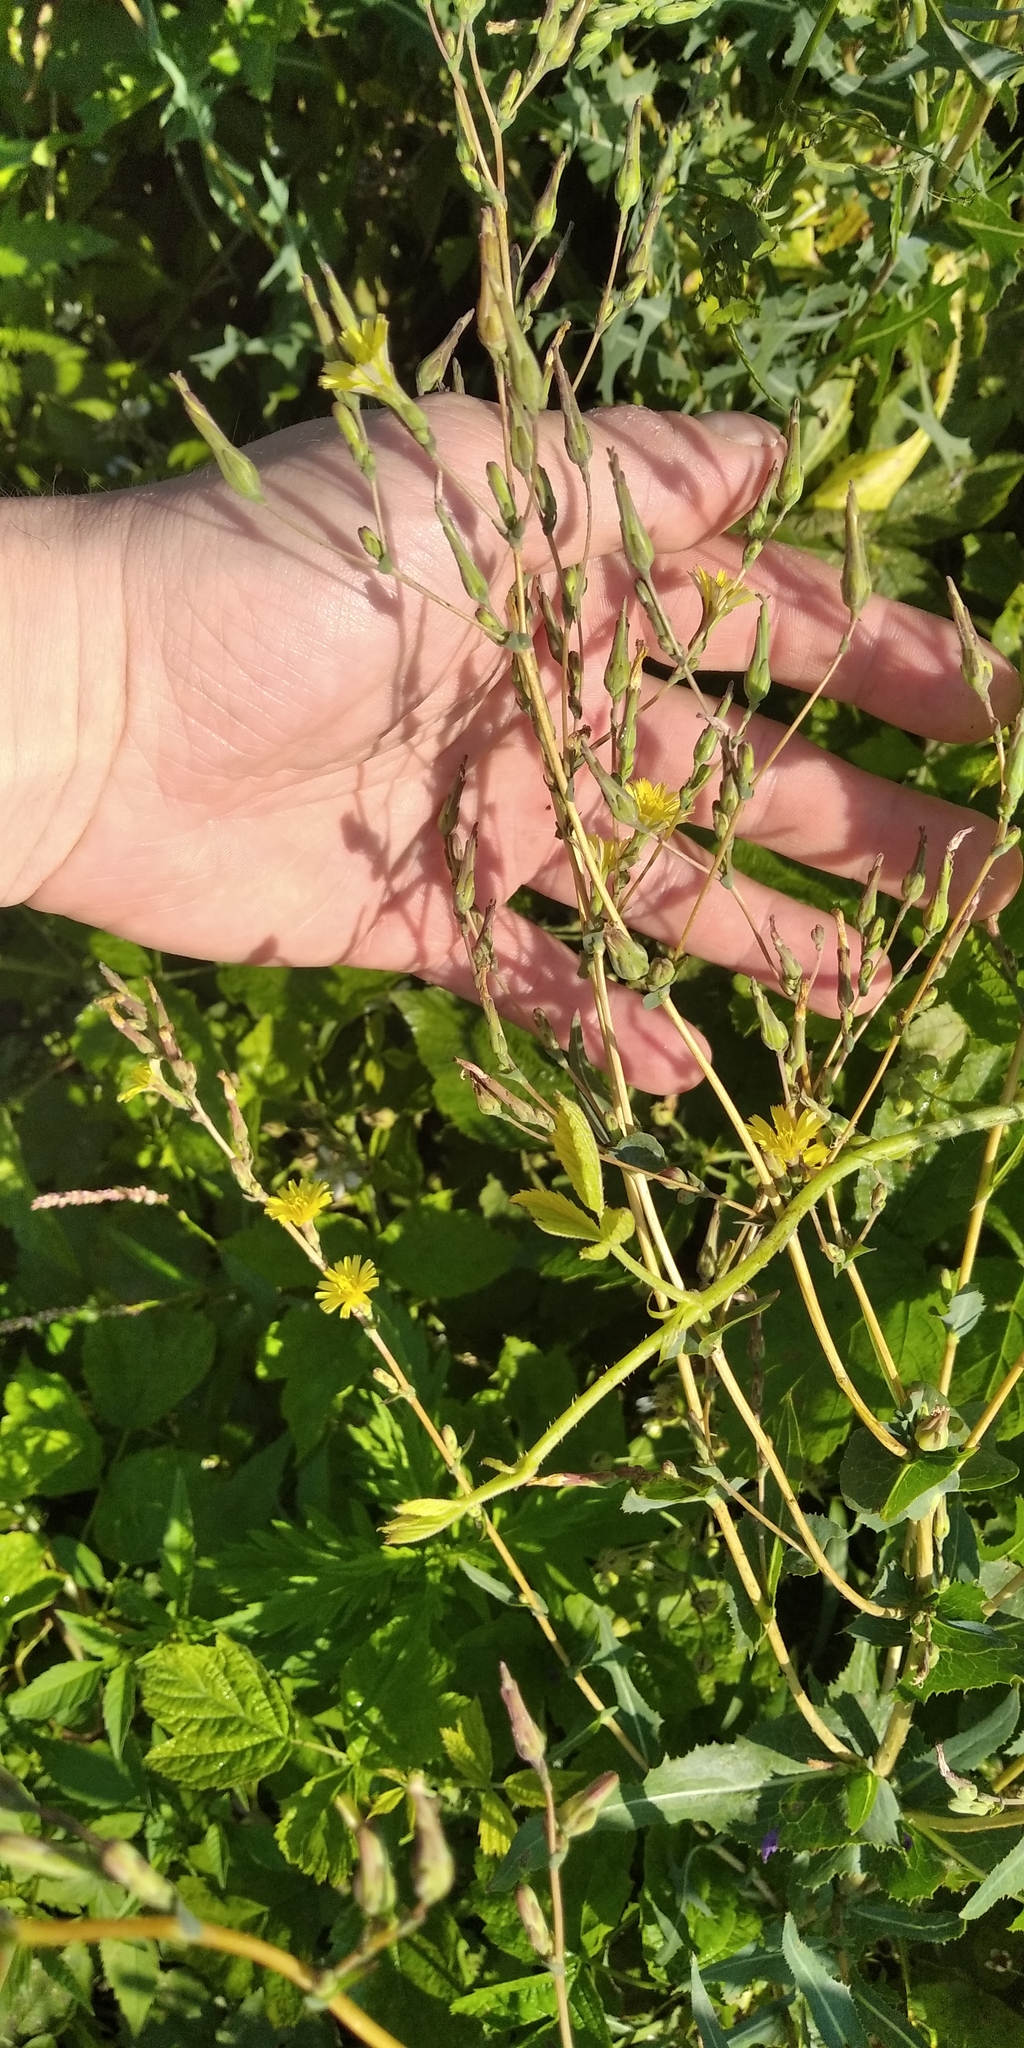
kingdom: Plantae
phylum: Tracheophyta
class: Magnoliopsida
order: Asterales
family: Asteraceae
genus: Lactuca
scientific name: Lactuca serriola
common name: Prickly lettuce
